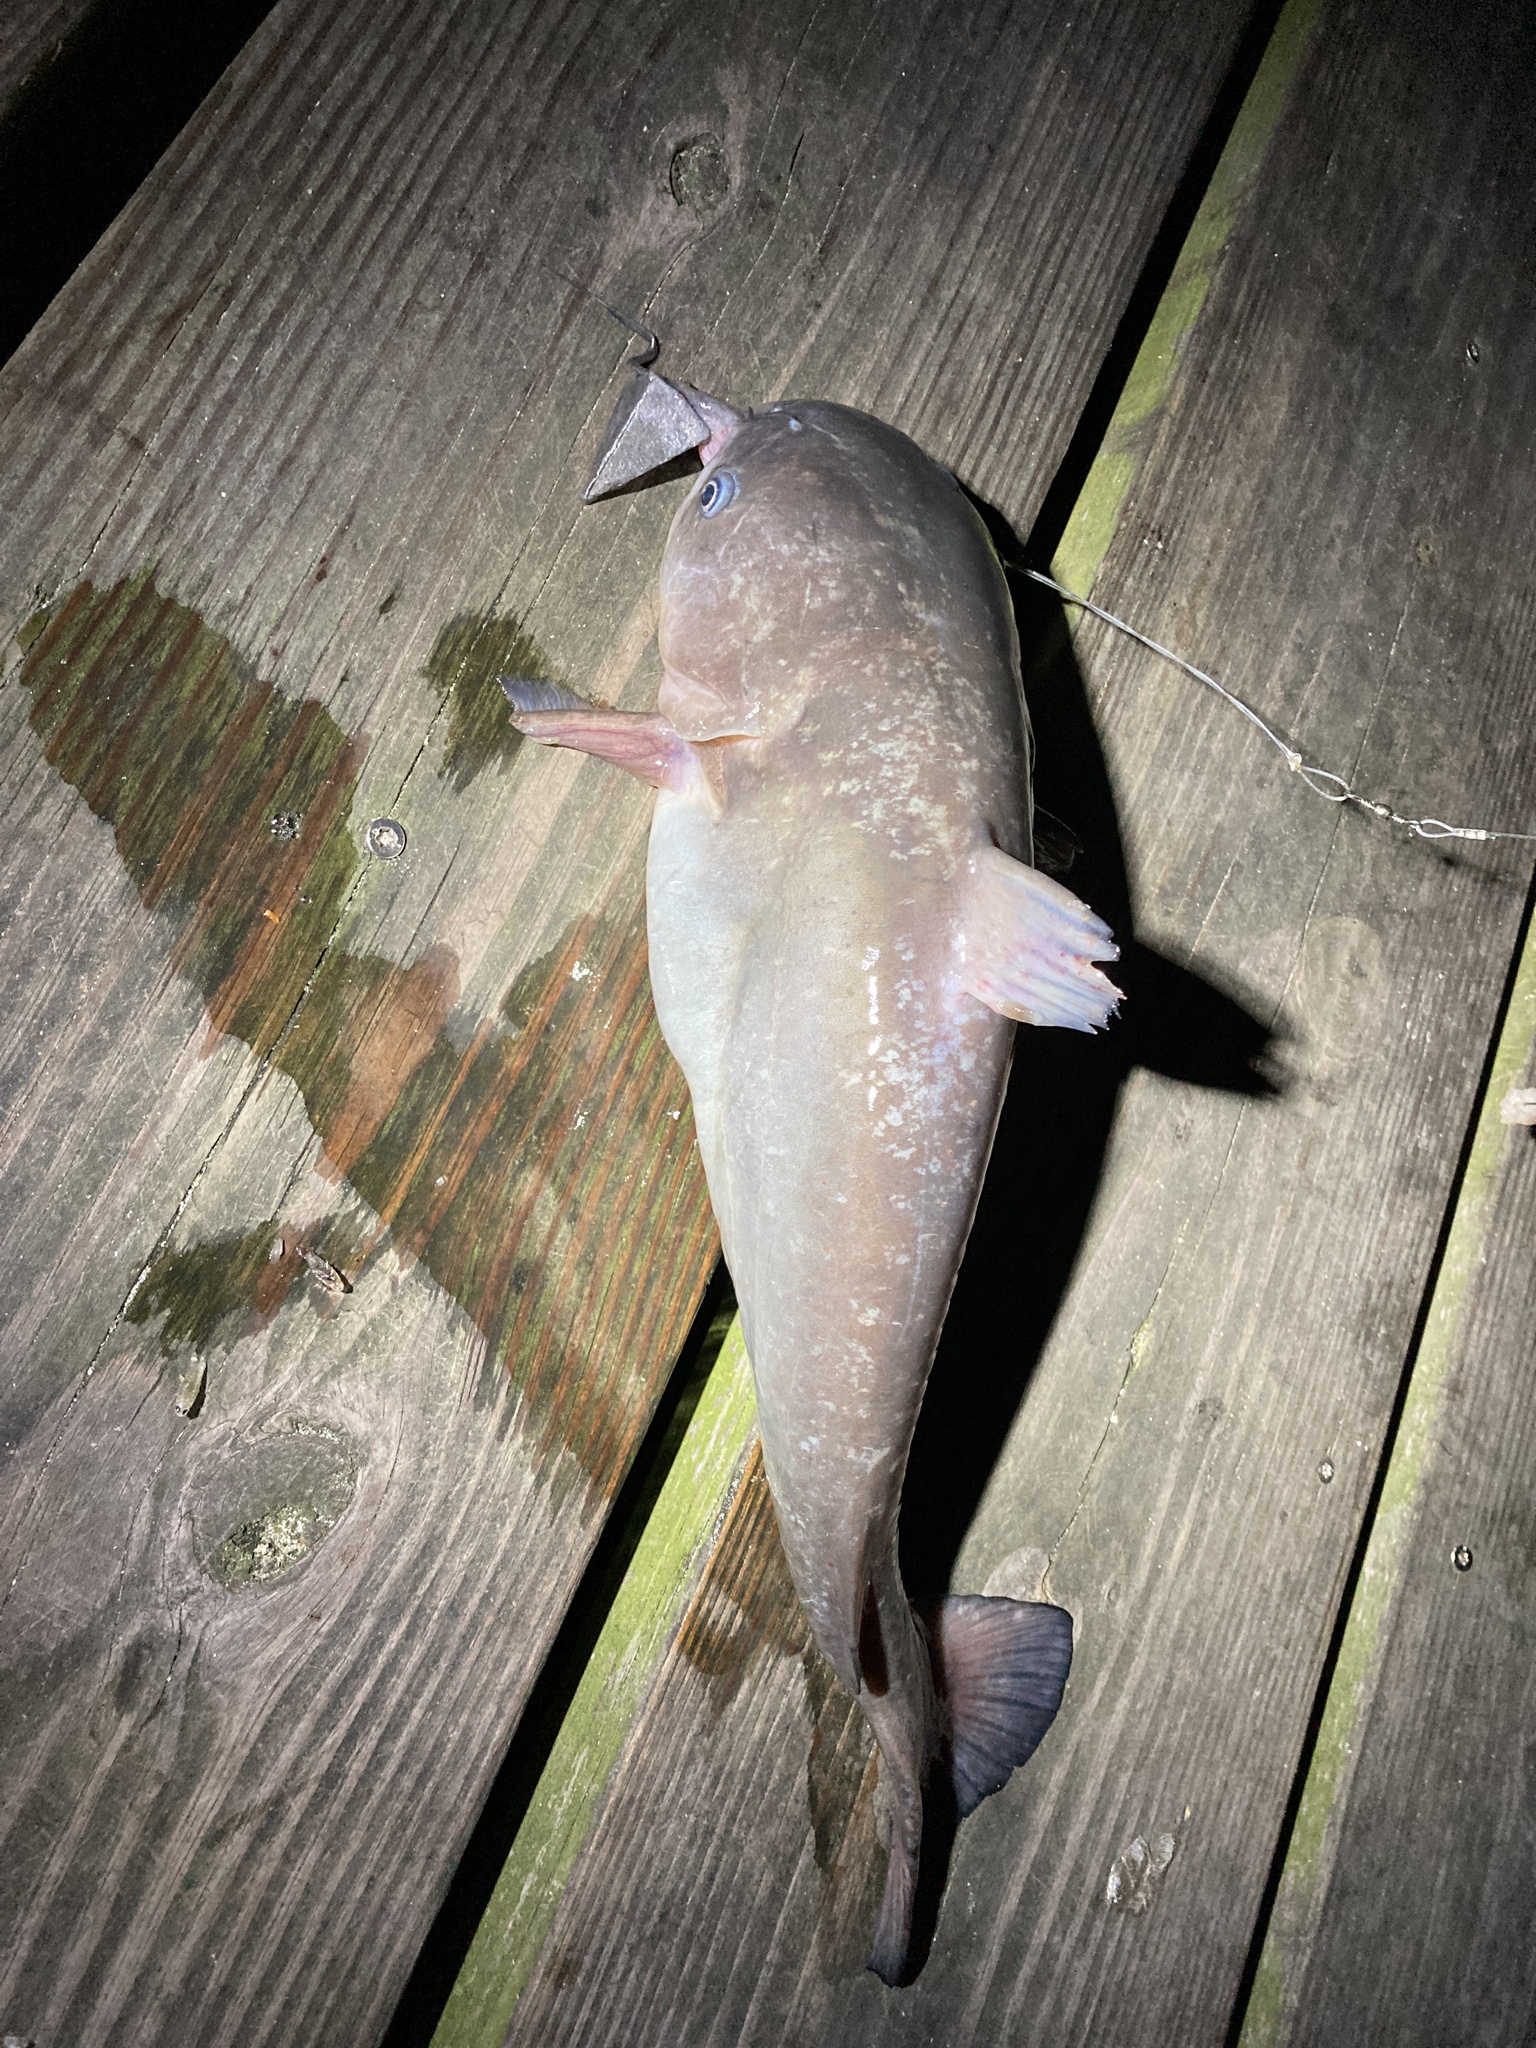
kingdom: Animalia
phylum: Chordata
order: Siluriformes
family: Ictaluridae
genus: Ameiurus
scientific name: Ameiurus catus
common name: White catfish
